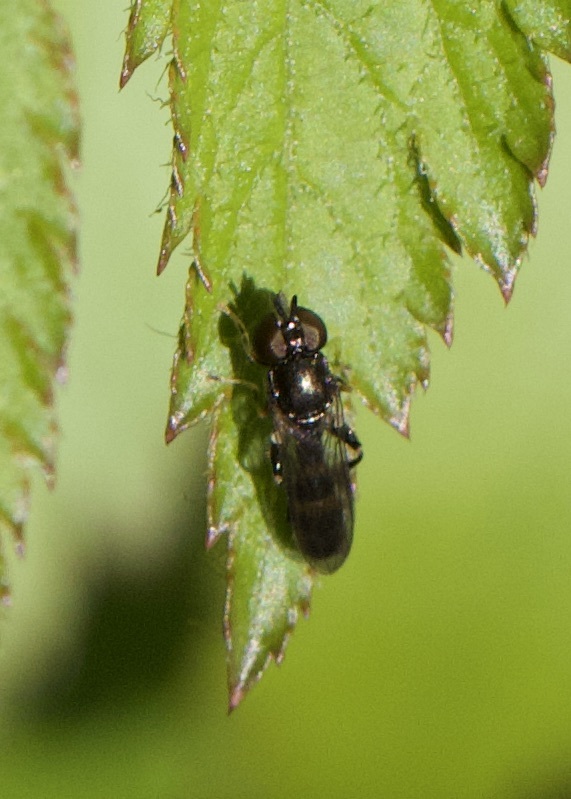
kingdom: Animalia
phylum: Arthropoda
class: Insecta
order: Diptera
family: Syrphidae
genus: Neoascia
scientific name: Neoascia
